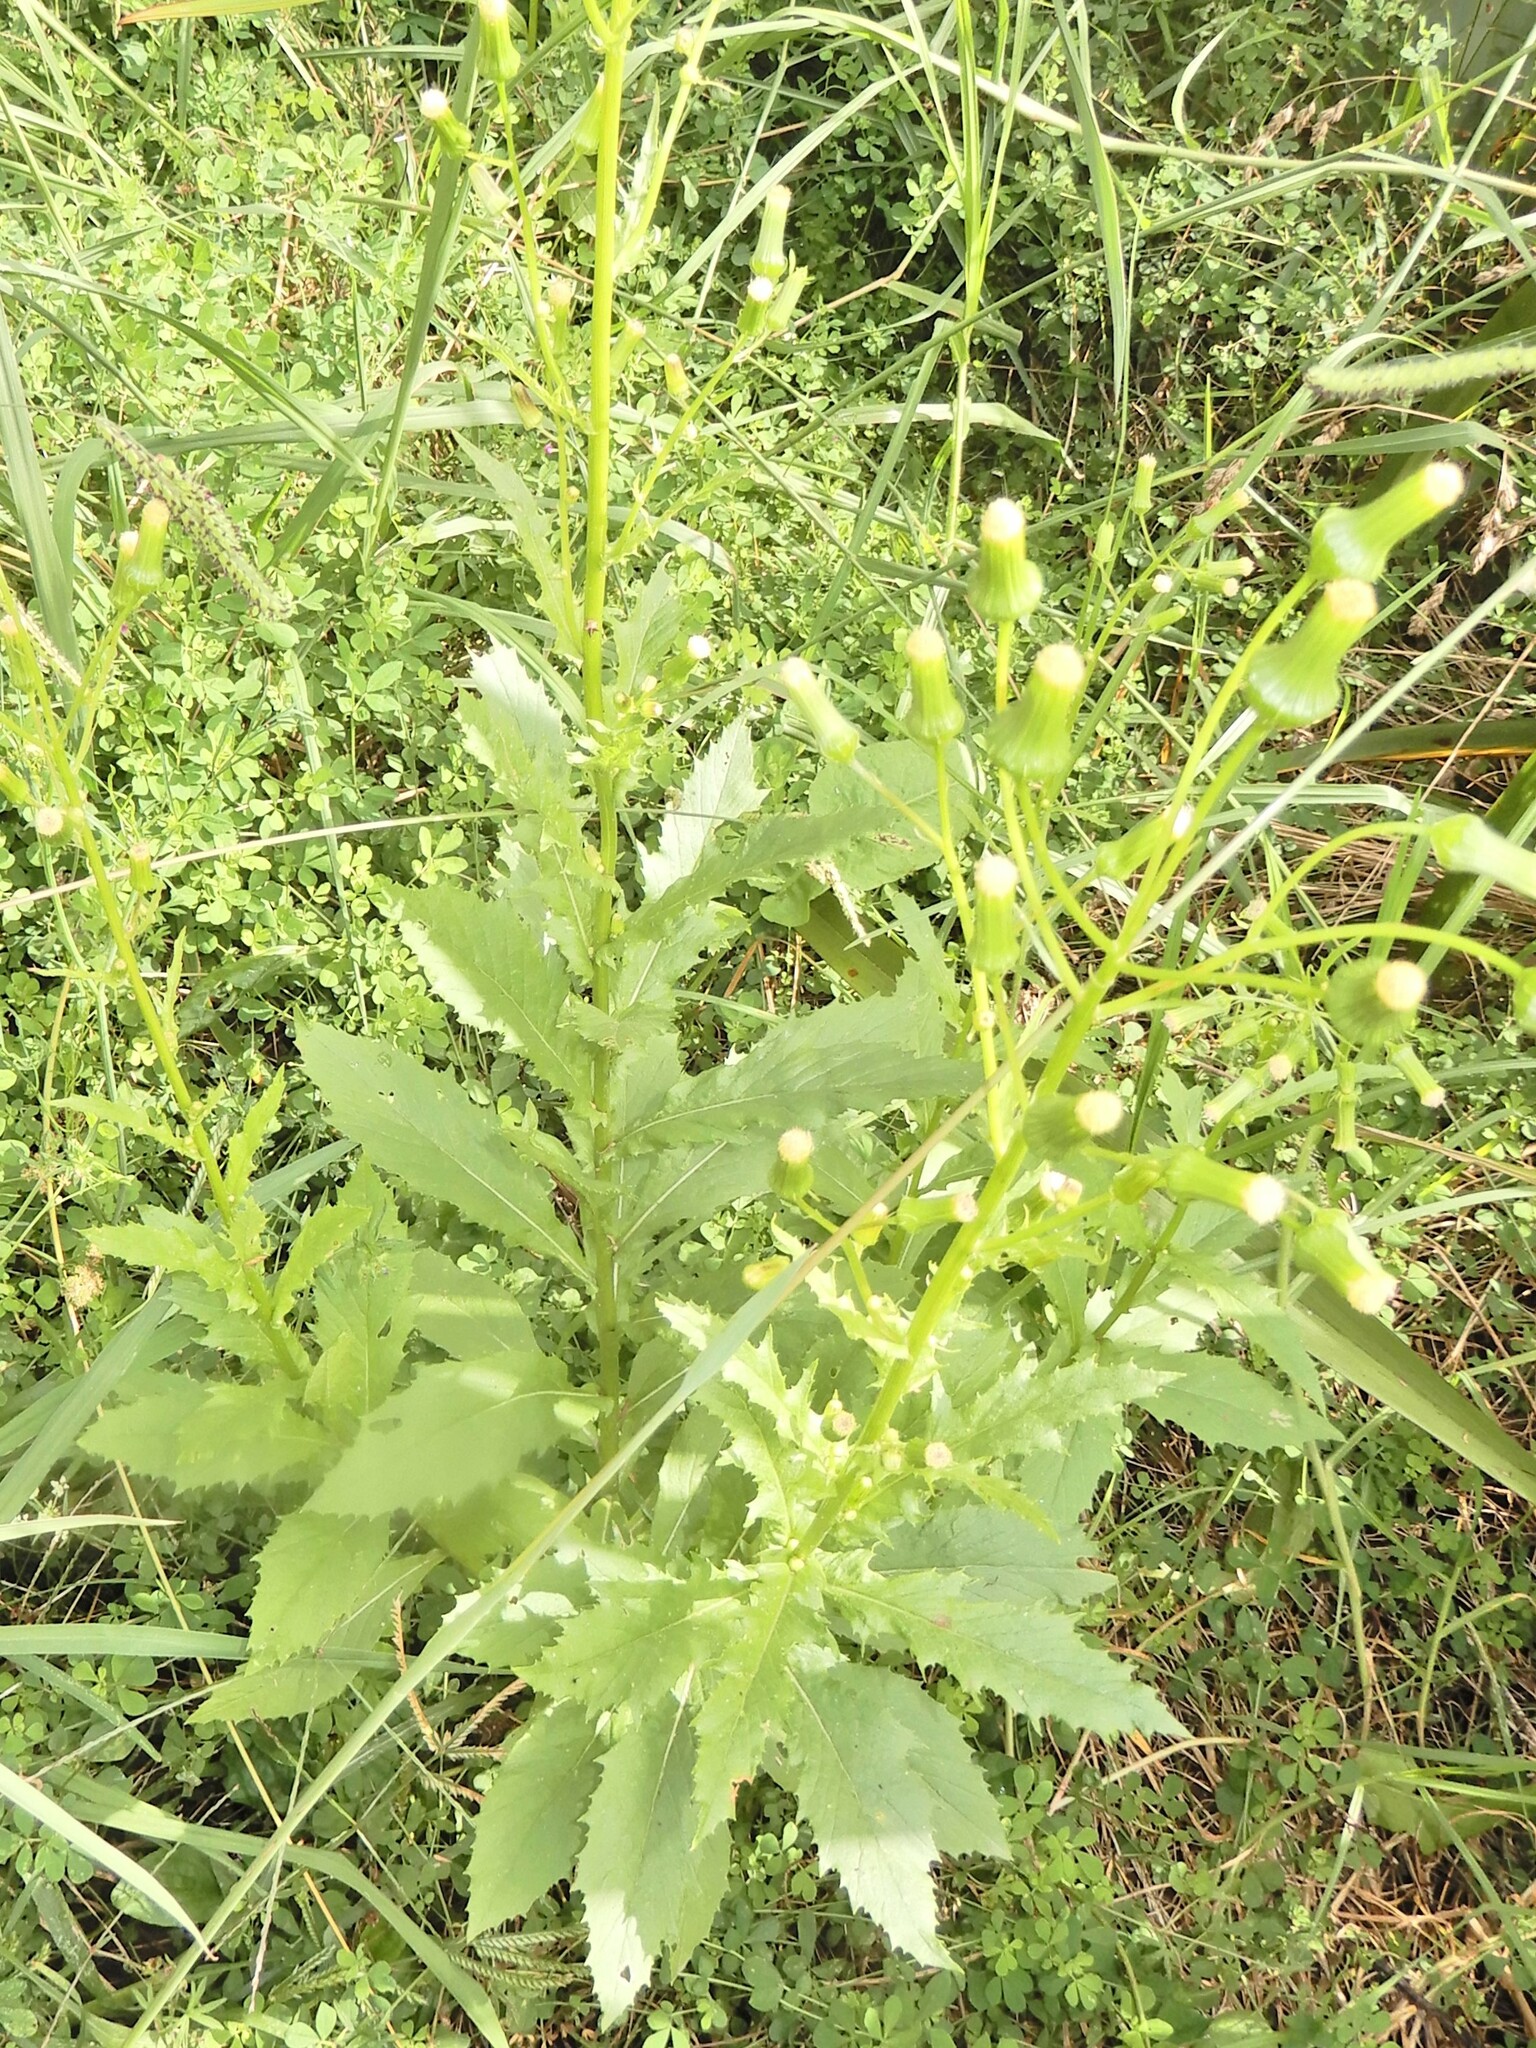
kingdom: Plantae
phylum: Tracheophyta
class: Magnoliopsida
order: Asterales
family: Asteraceae
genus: Erechtites
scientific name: Erechtites hieraciifolius
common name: American burnweed
